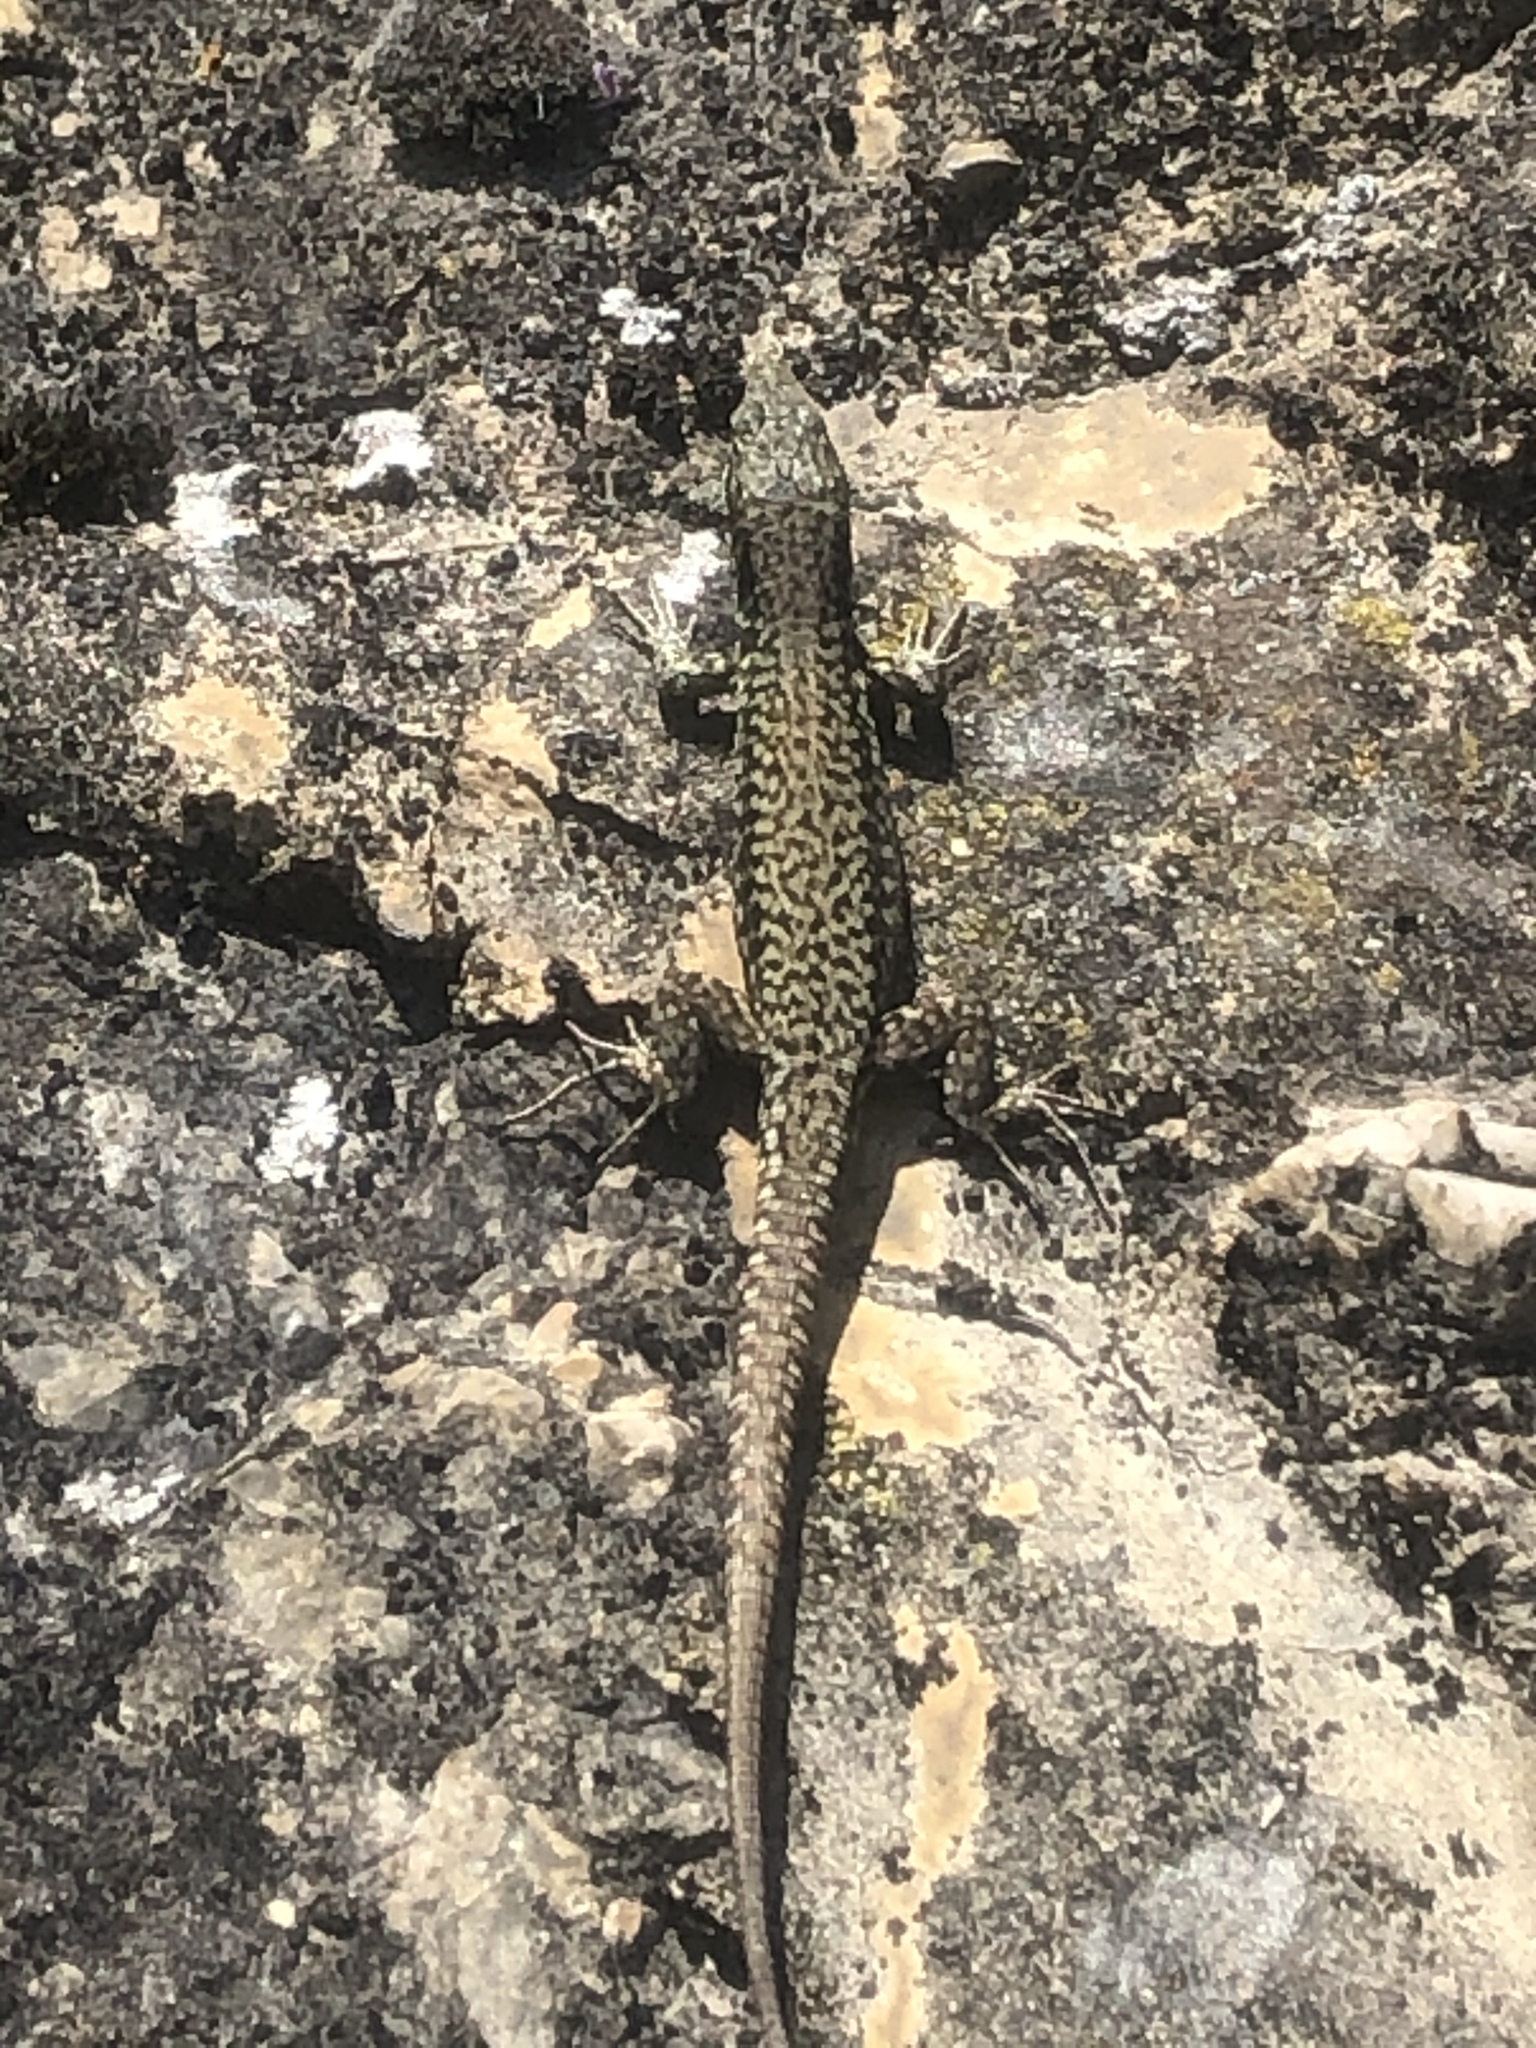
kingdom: Animalia
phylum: Chordata
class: Squamata
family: Lacertidae
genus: Podarcis
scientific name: Podarcis muralis
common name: Common wall lizard
